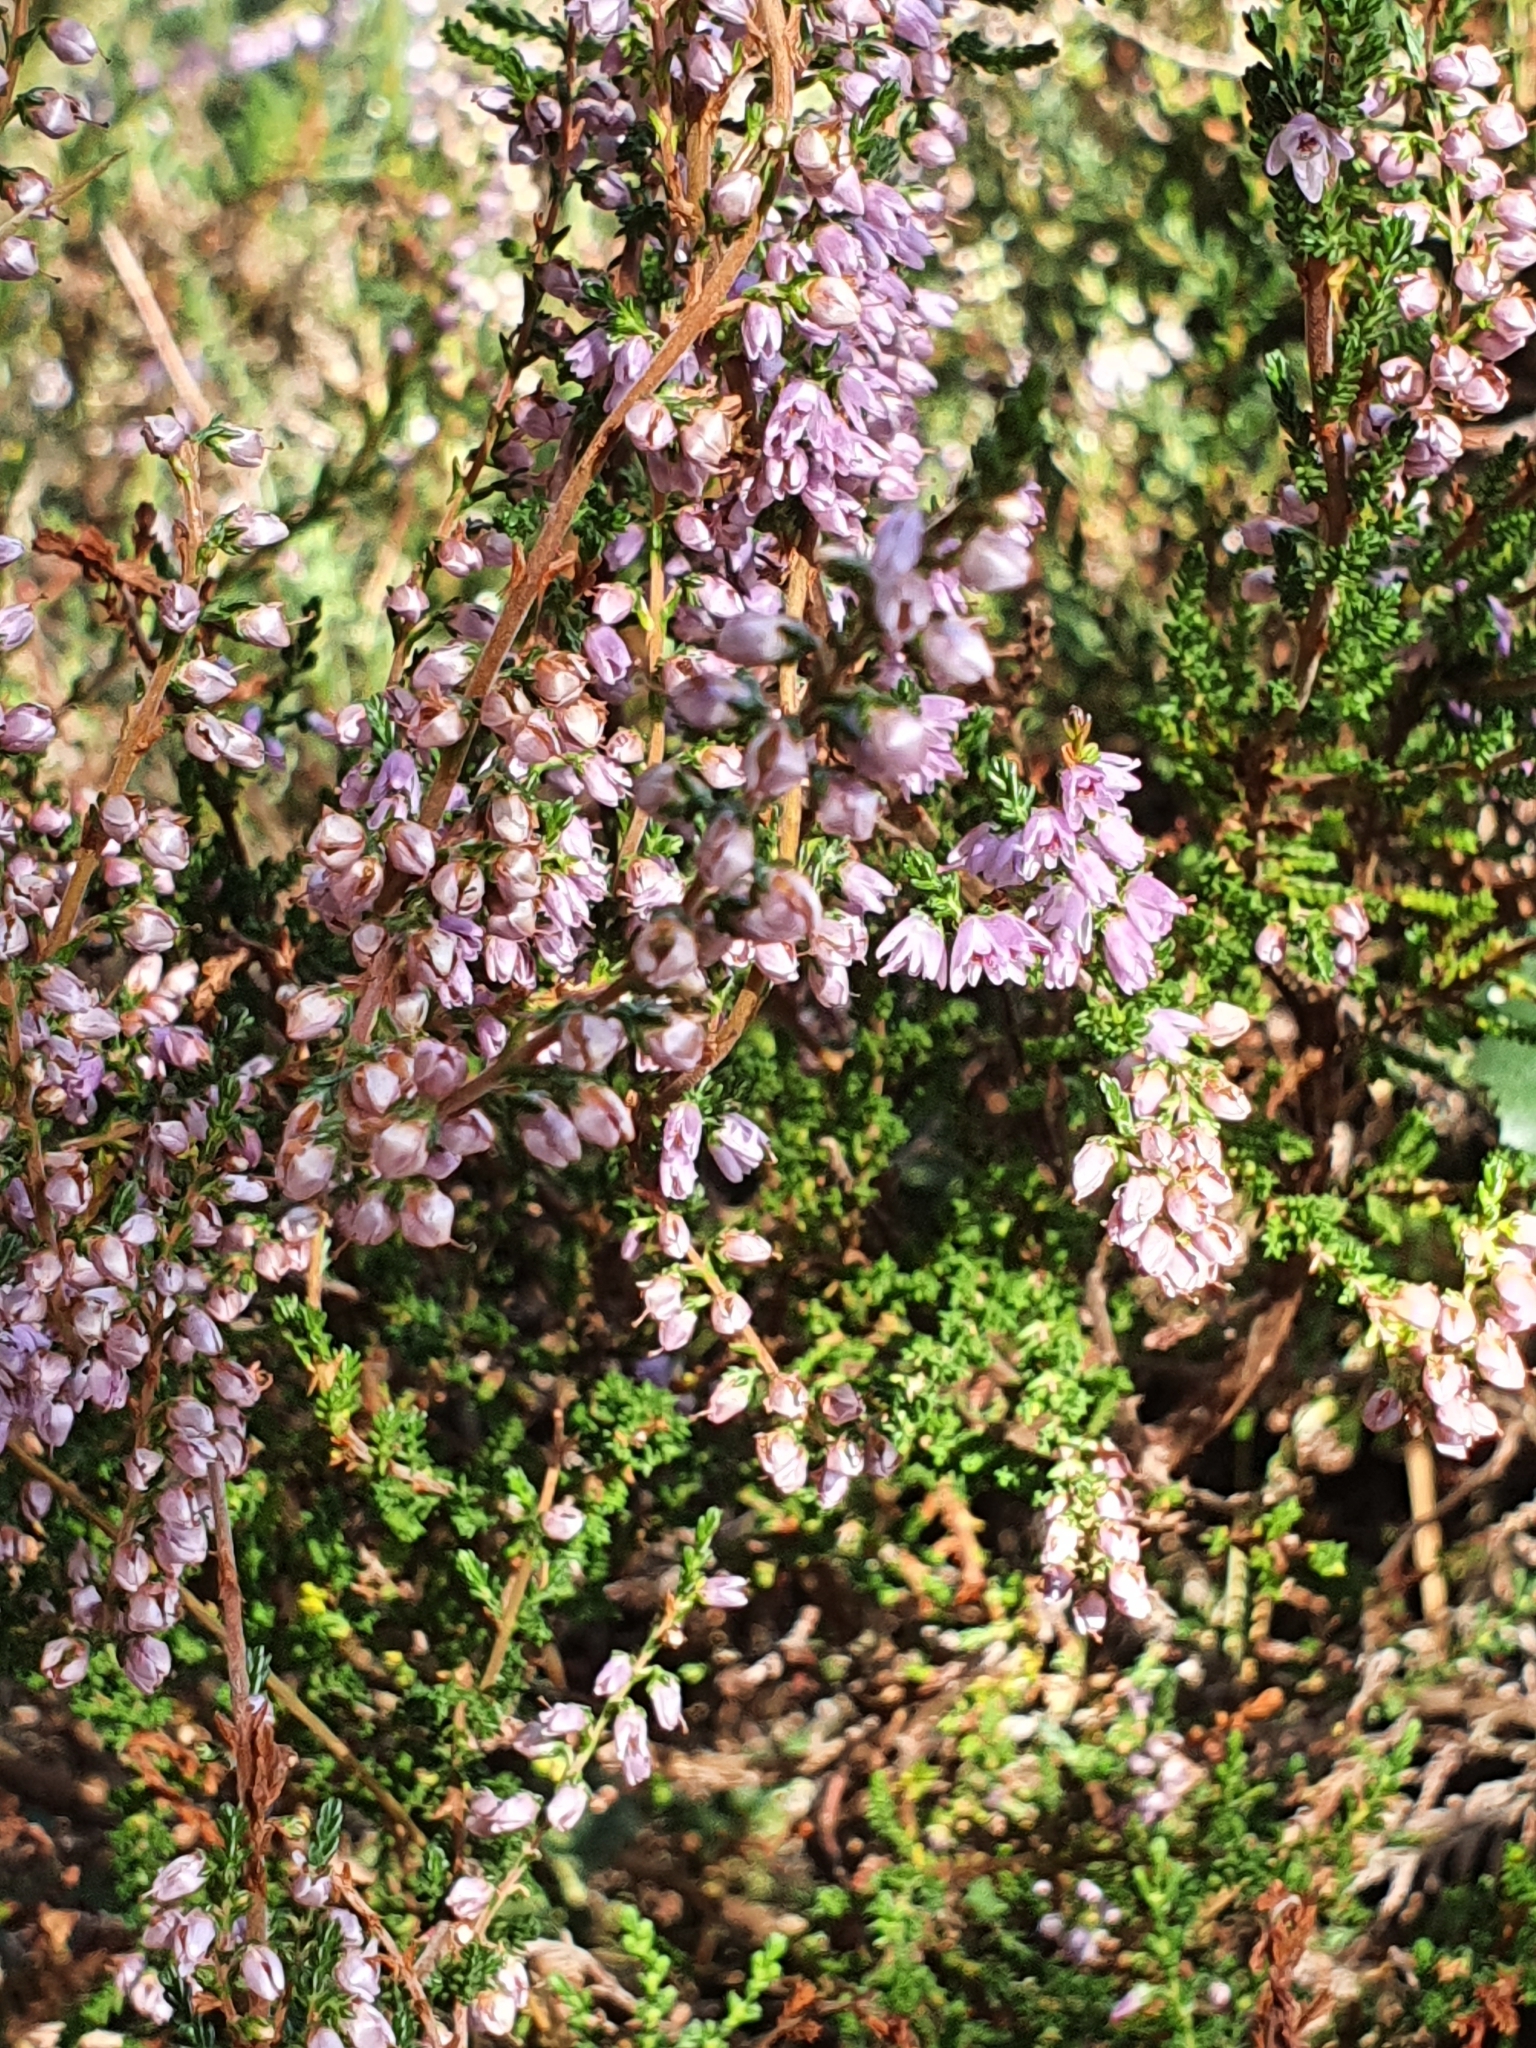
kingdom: Plantae
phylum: Tracheophyta
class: Magnoliopsida
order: Ericales
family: Ericaceae
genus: Calluna
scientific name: Calluna vulgaris
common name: Heather
